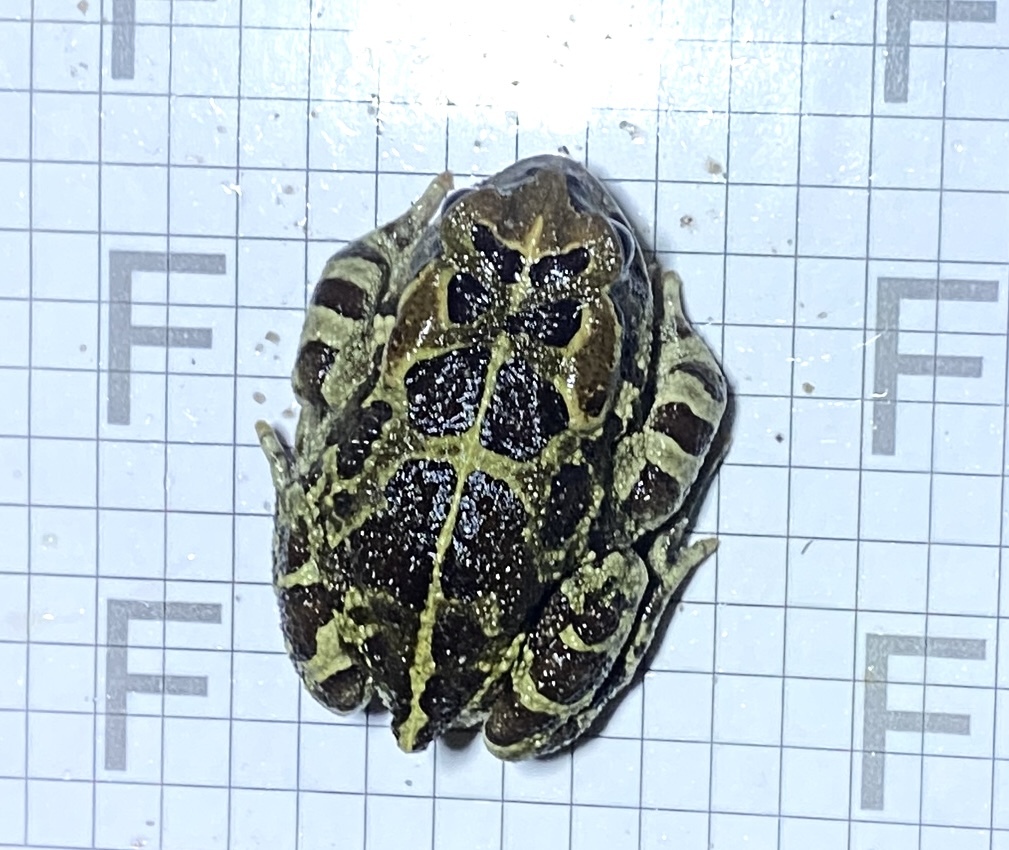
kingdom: Animalia
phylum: Chordata
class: Amphibia
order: Anura
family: Bufonidae
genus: Sclerophrys
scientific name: Sclerophrys pantherina
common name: Panther toad
